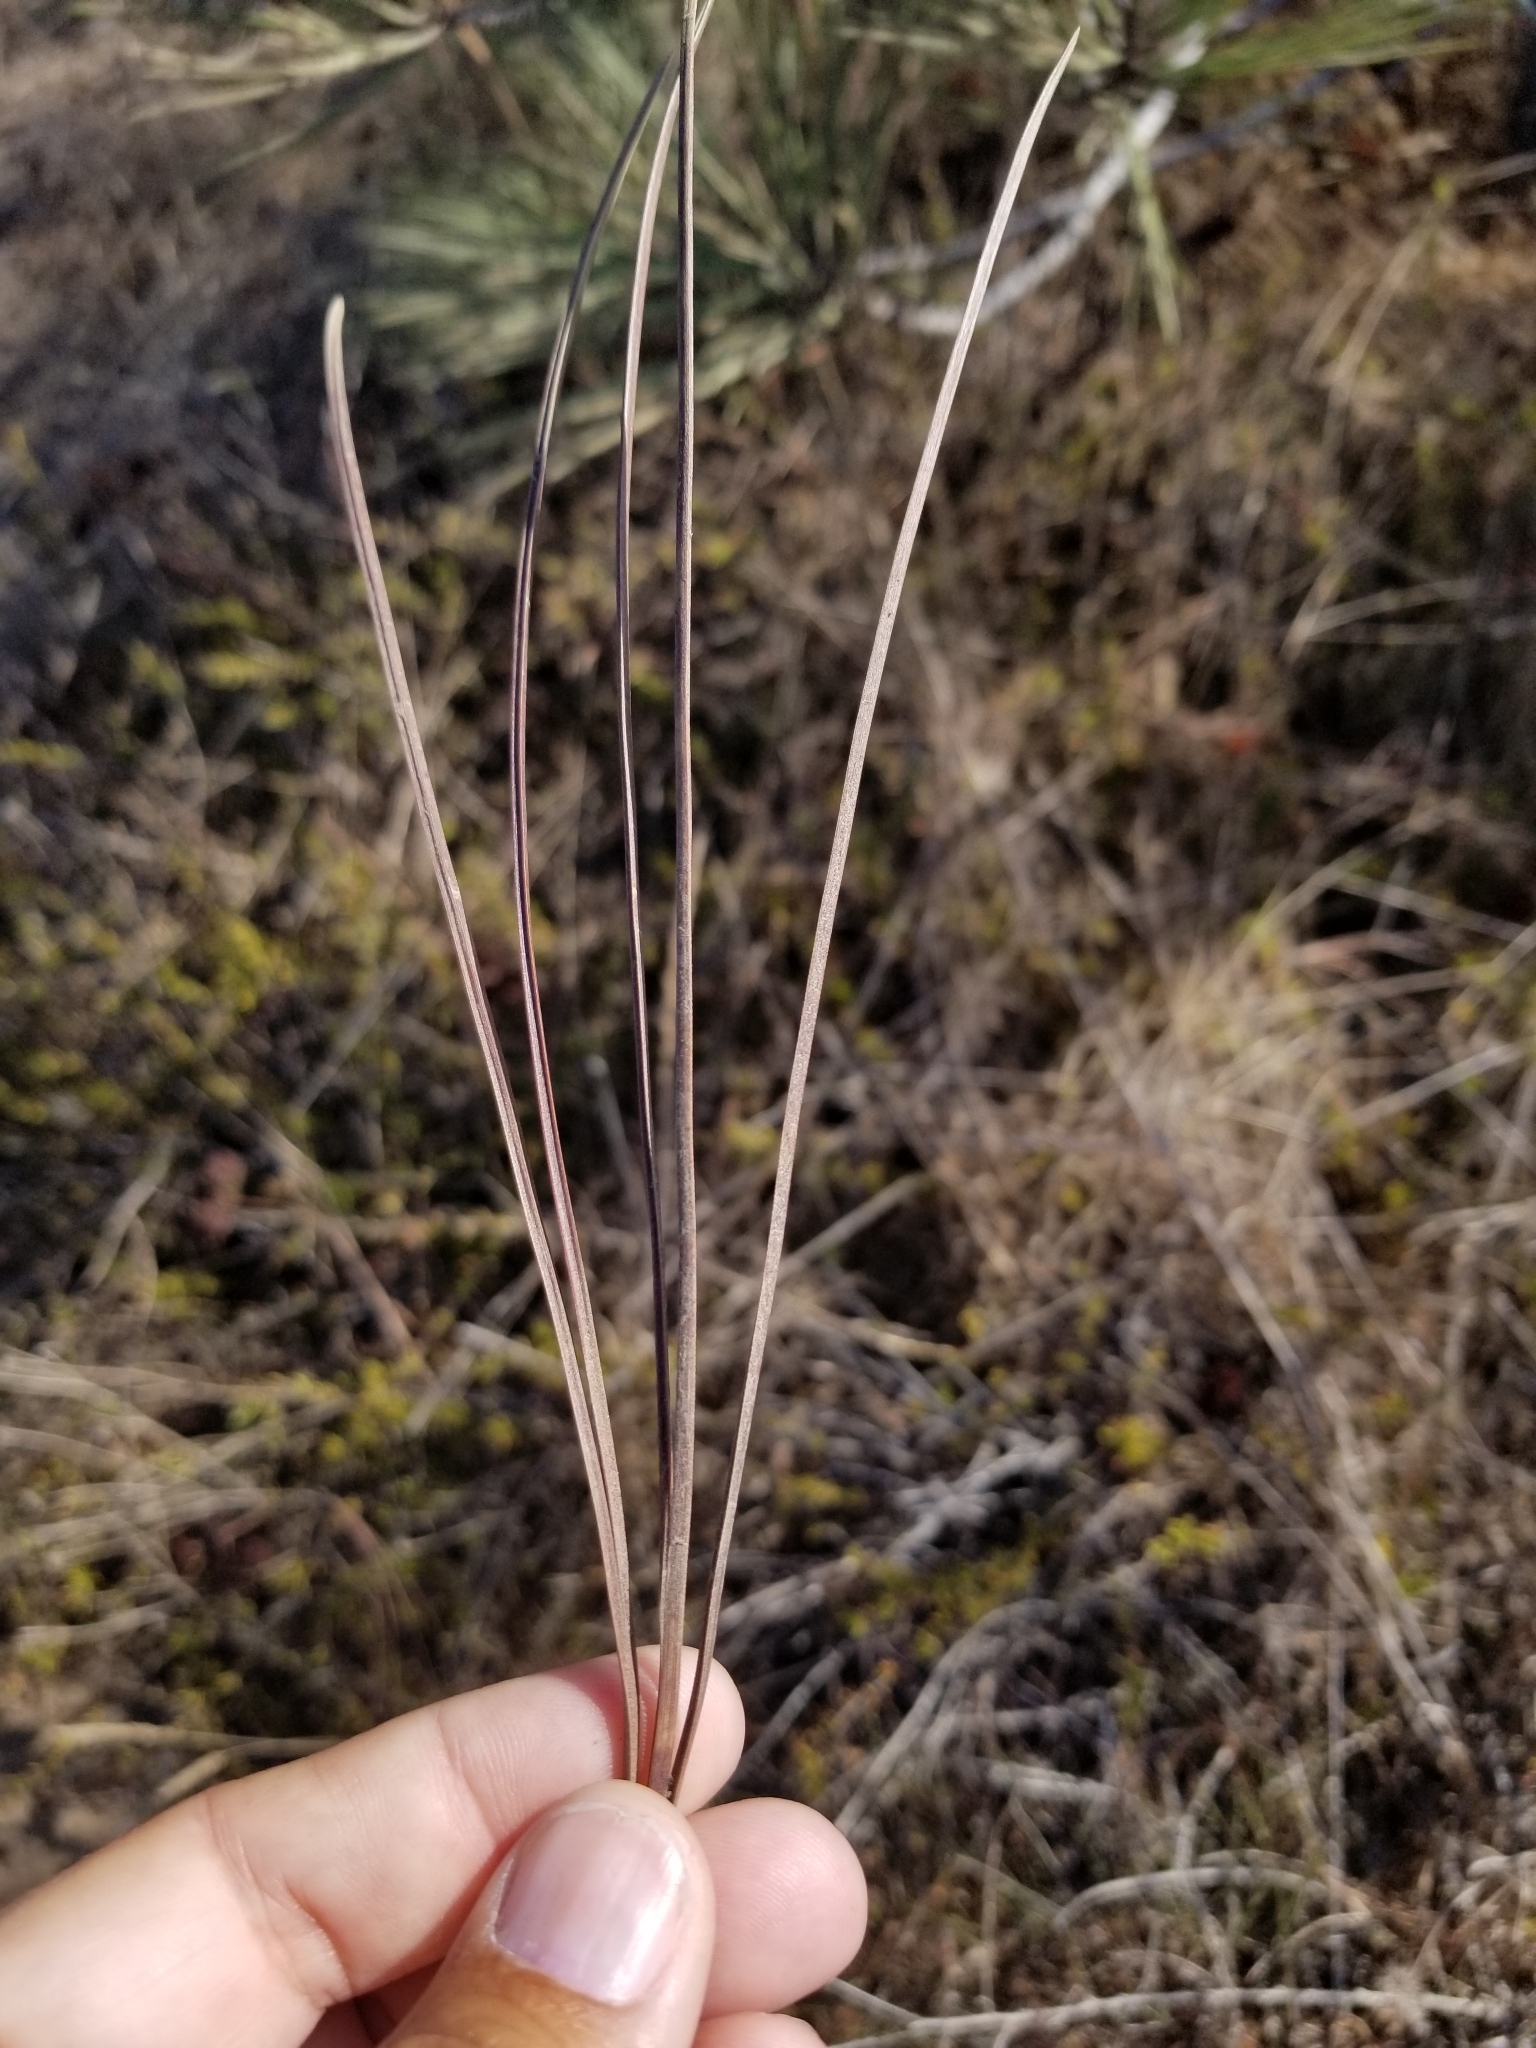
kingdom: Plantae
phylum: Tracheophyta
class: Pinopsida
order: Pinales
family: Pinaceae
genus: Pinus
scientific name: Pinus torreyana
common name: Torrey pine
